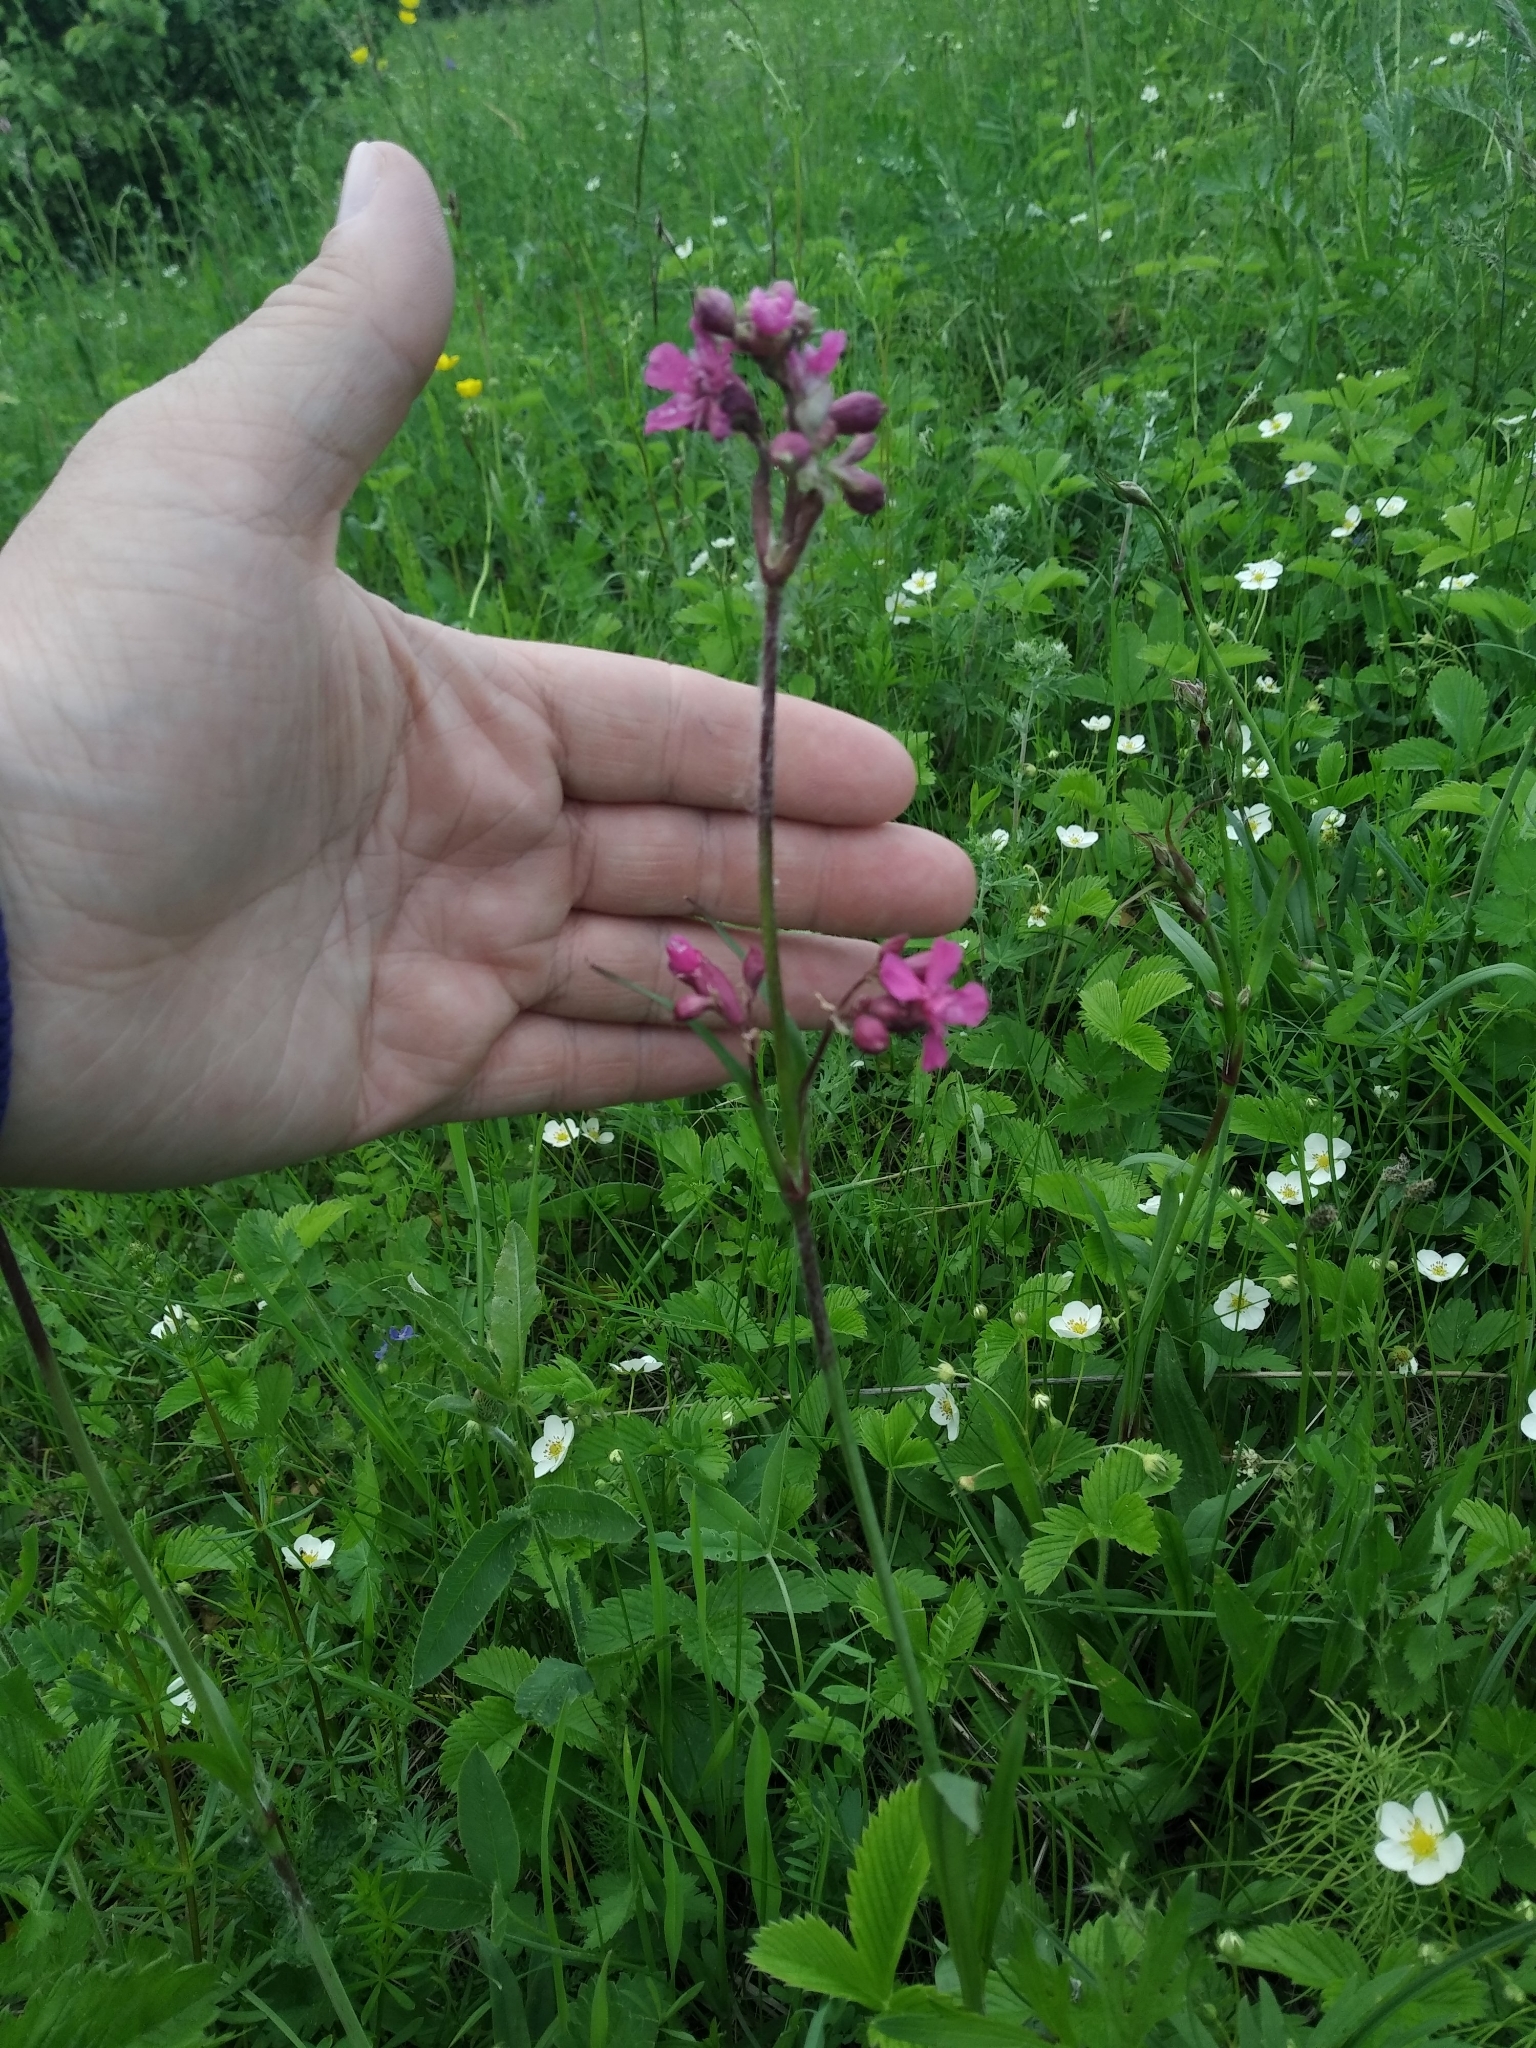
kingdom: Plantae
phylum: Tracheophyta
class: Magnoliopsida
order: Caryophyllales
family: Caryophyllaceae
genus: Viscaria
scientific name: Viscaria vulgaris
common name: Clammy campion
